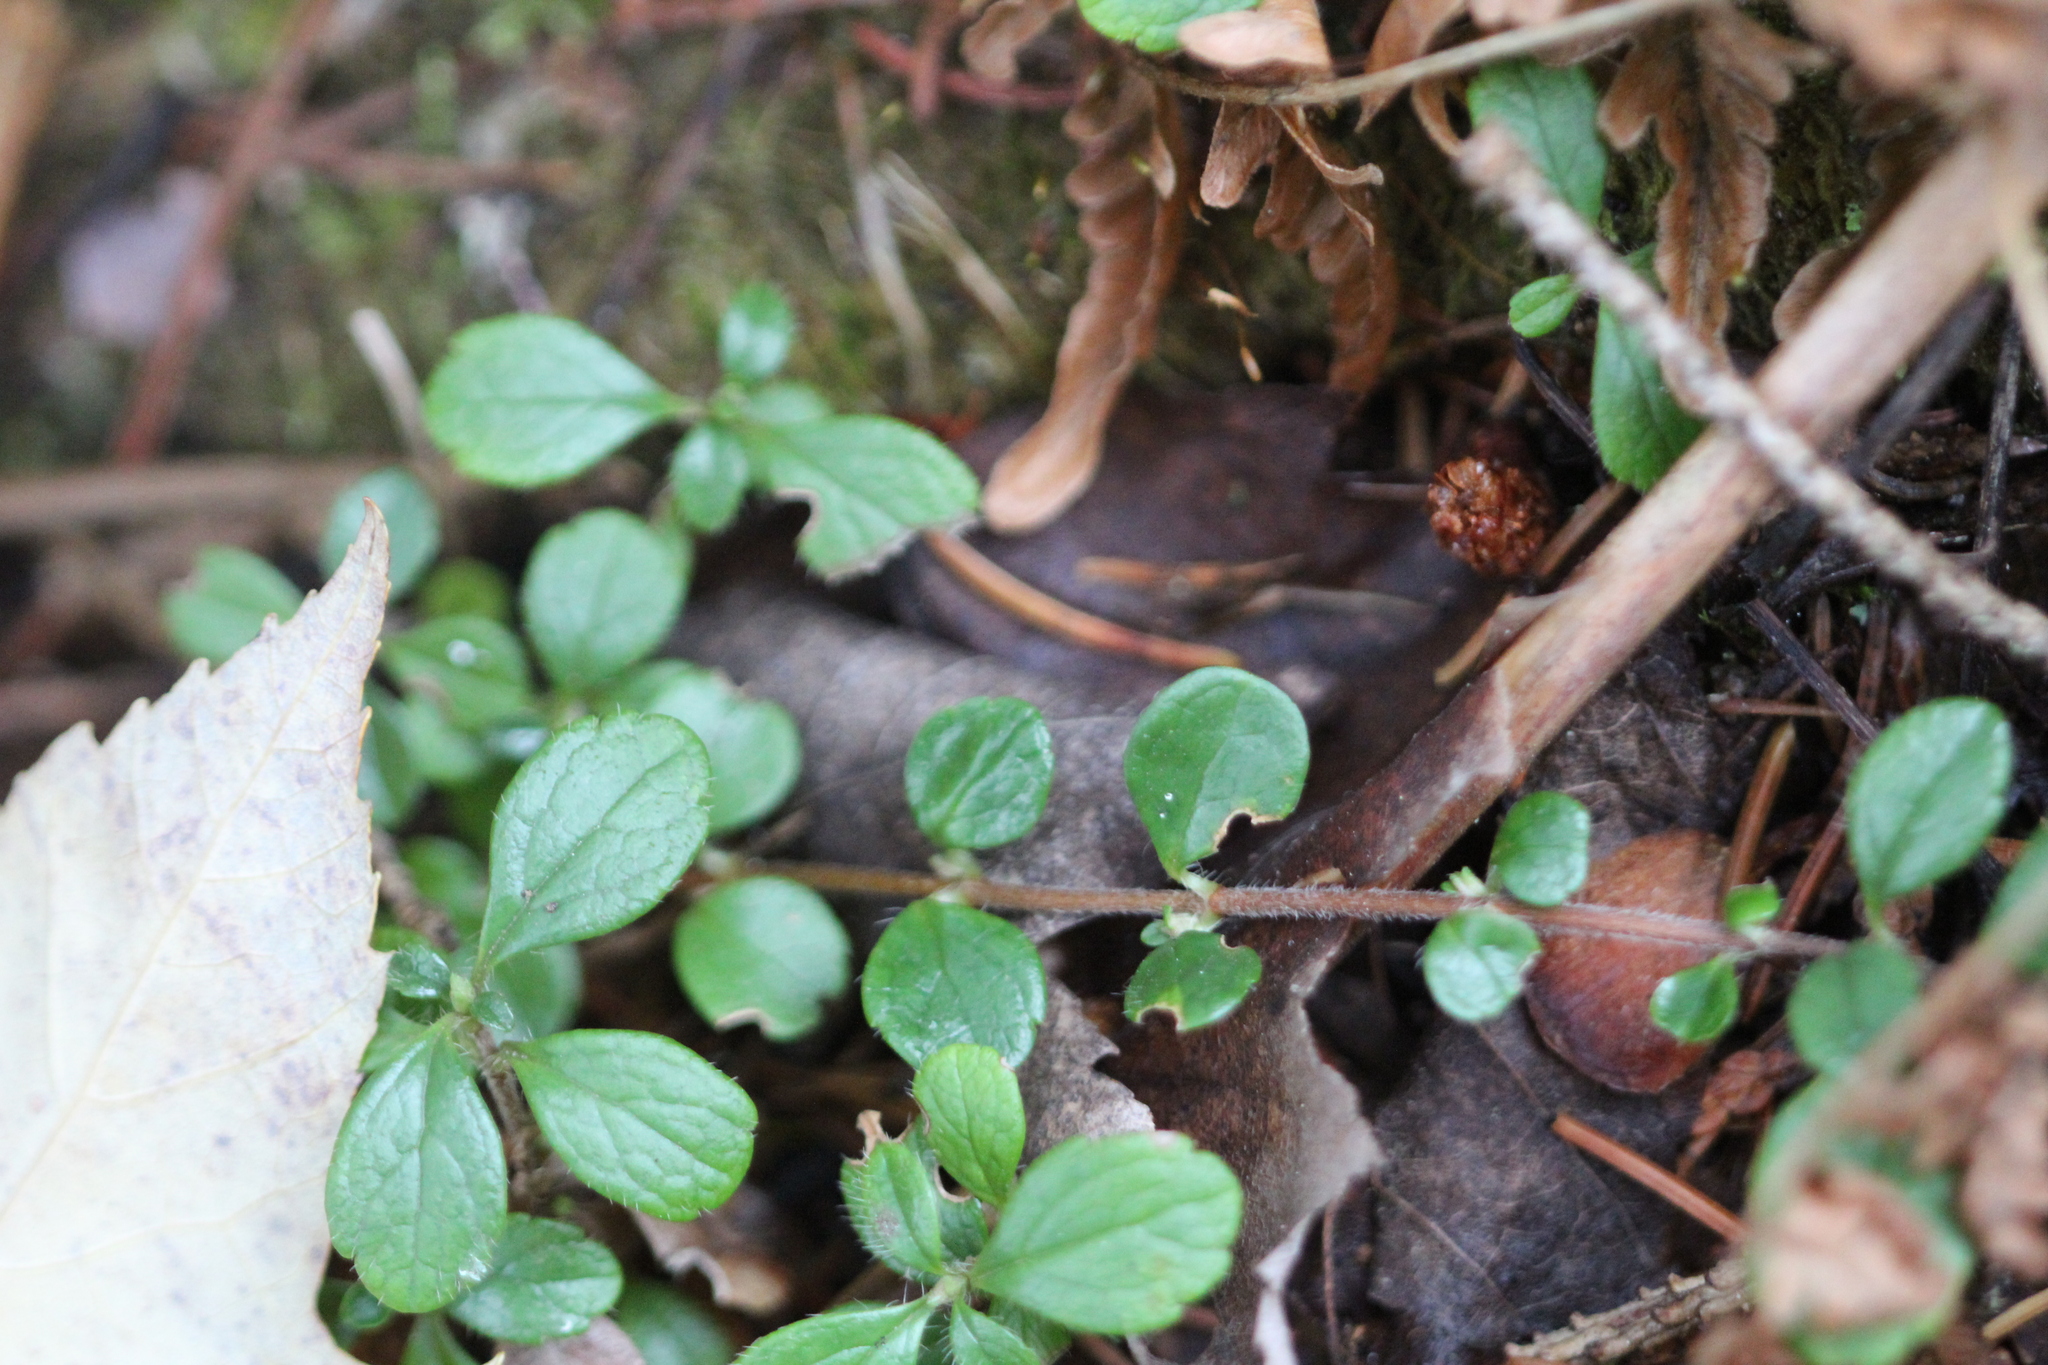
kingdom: Plantae
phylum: Tracheophyta
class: Magnoliopsida
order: Ericales
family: Ericaceae
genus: Gaultheria
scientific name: Gaultheria hispidula
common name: Cancer wintergreen
